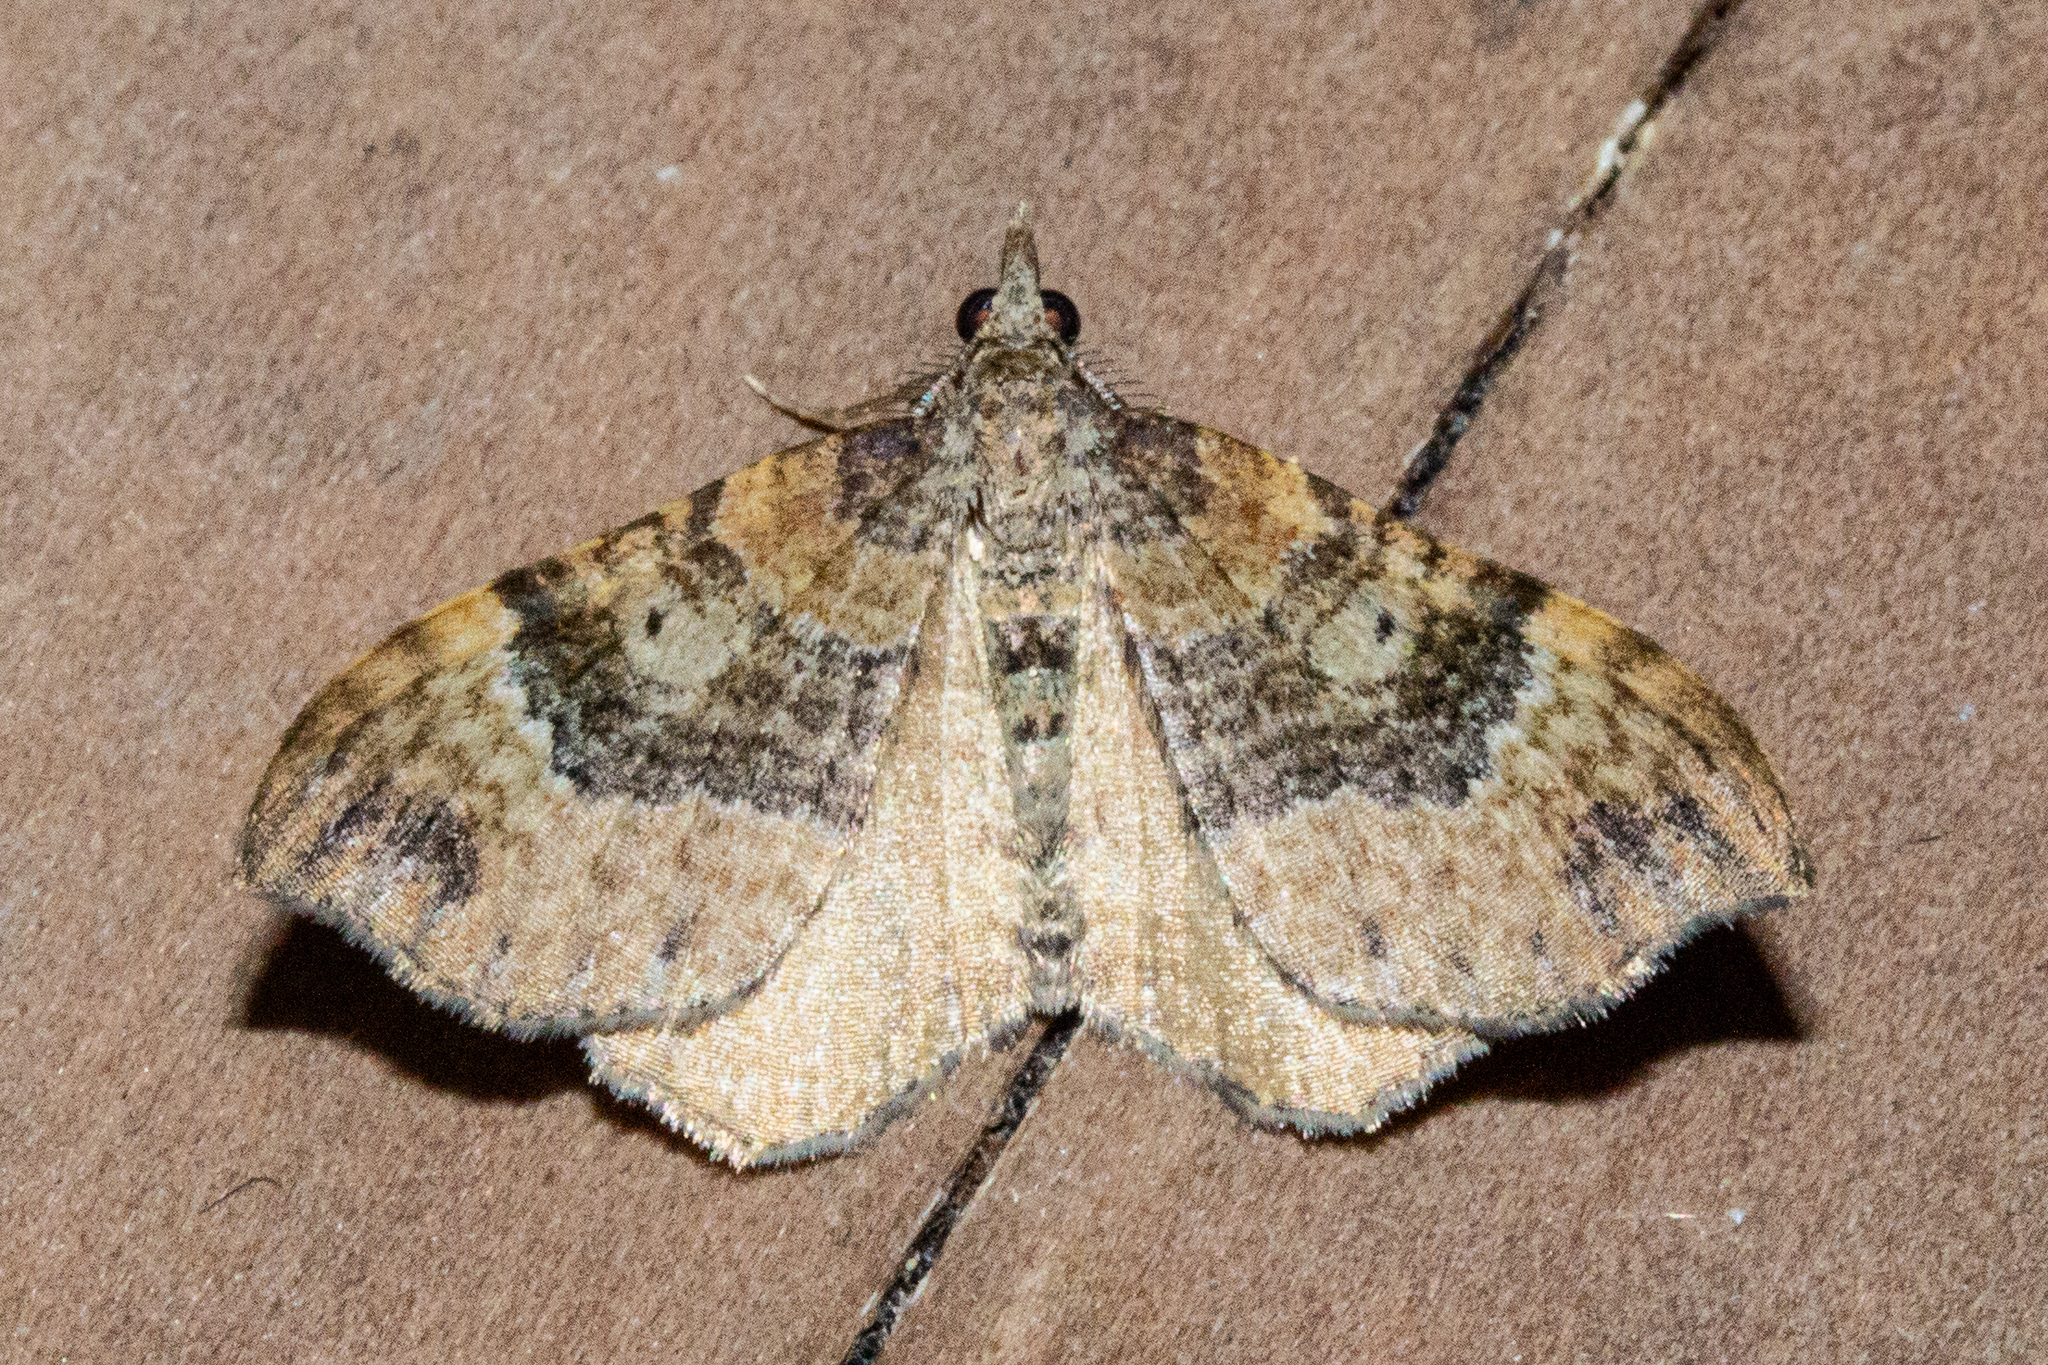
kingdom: Animalia
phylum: Arthropoda
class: Insecta
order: Lepidoptera
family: Geometridae
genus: Homodotis
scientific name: Homodotis megaspilata
